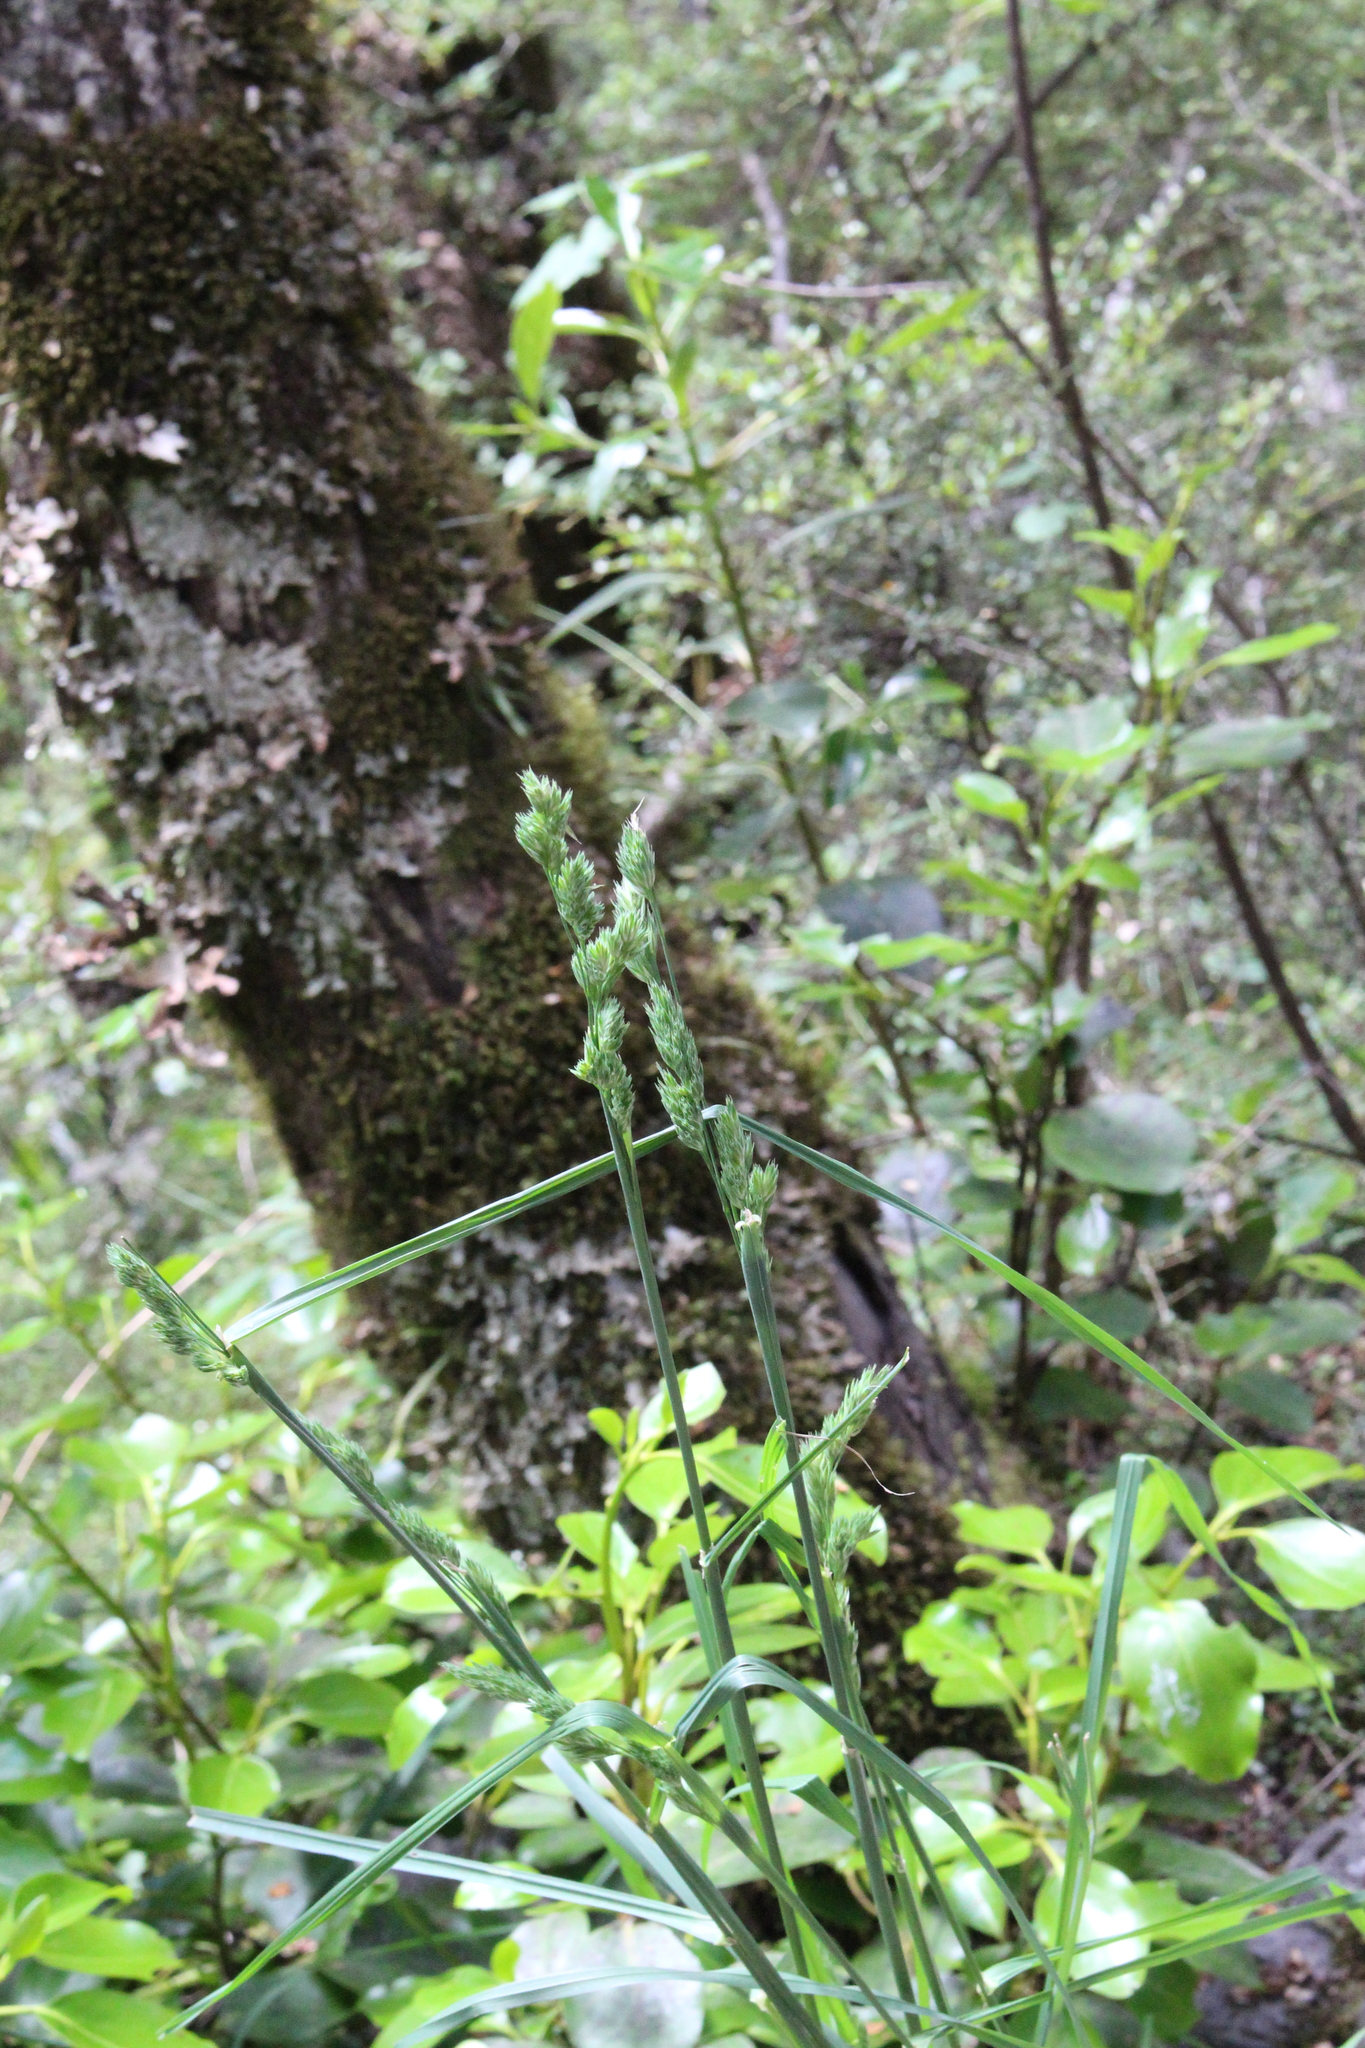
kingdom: Plantae
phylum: Tracheophyta
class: Liliopsida
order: Poales
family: Poaceae
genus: Dactylis
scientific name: Dactylis glomerata
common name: Orchardgrass
